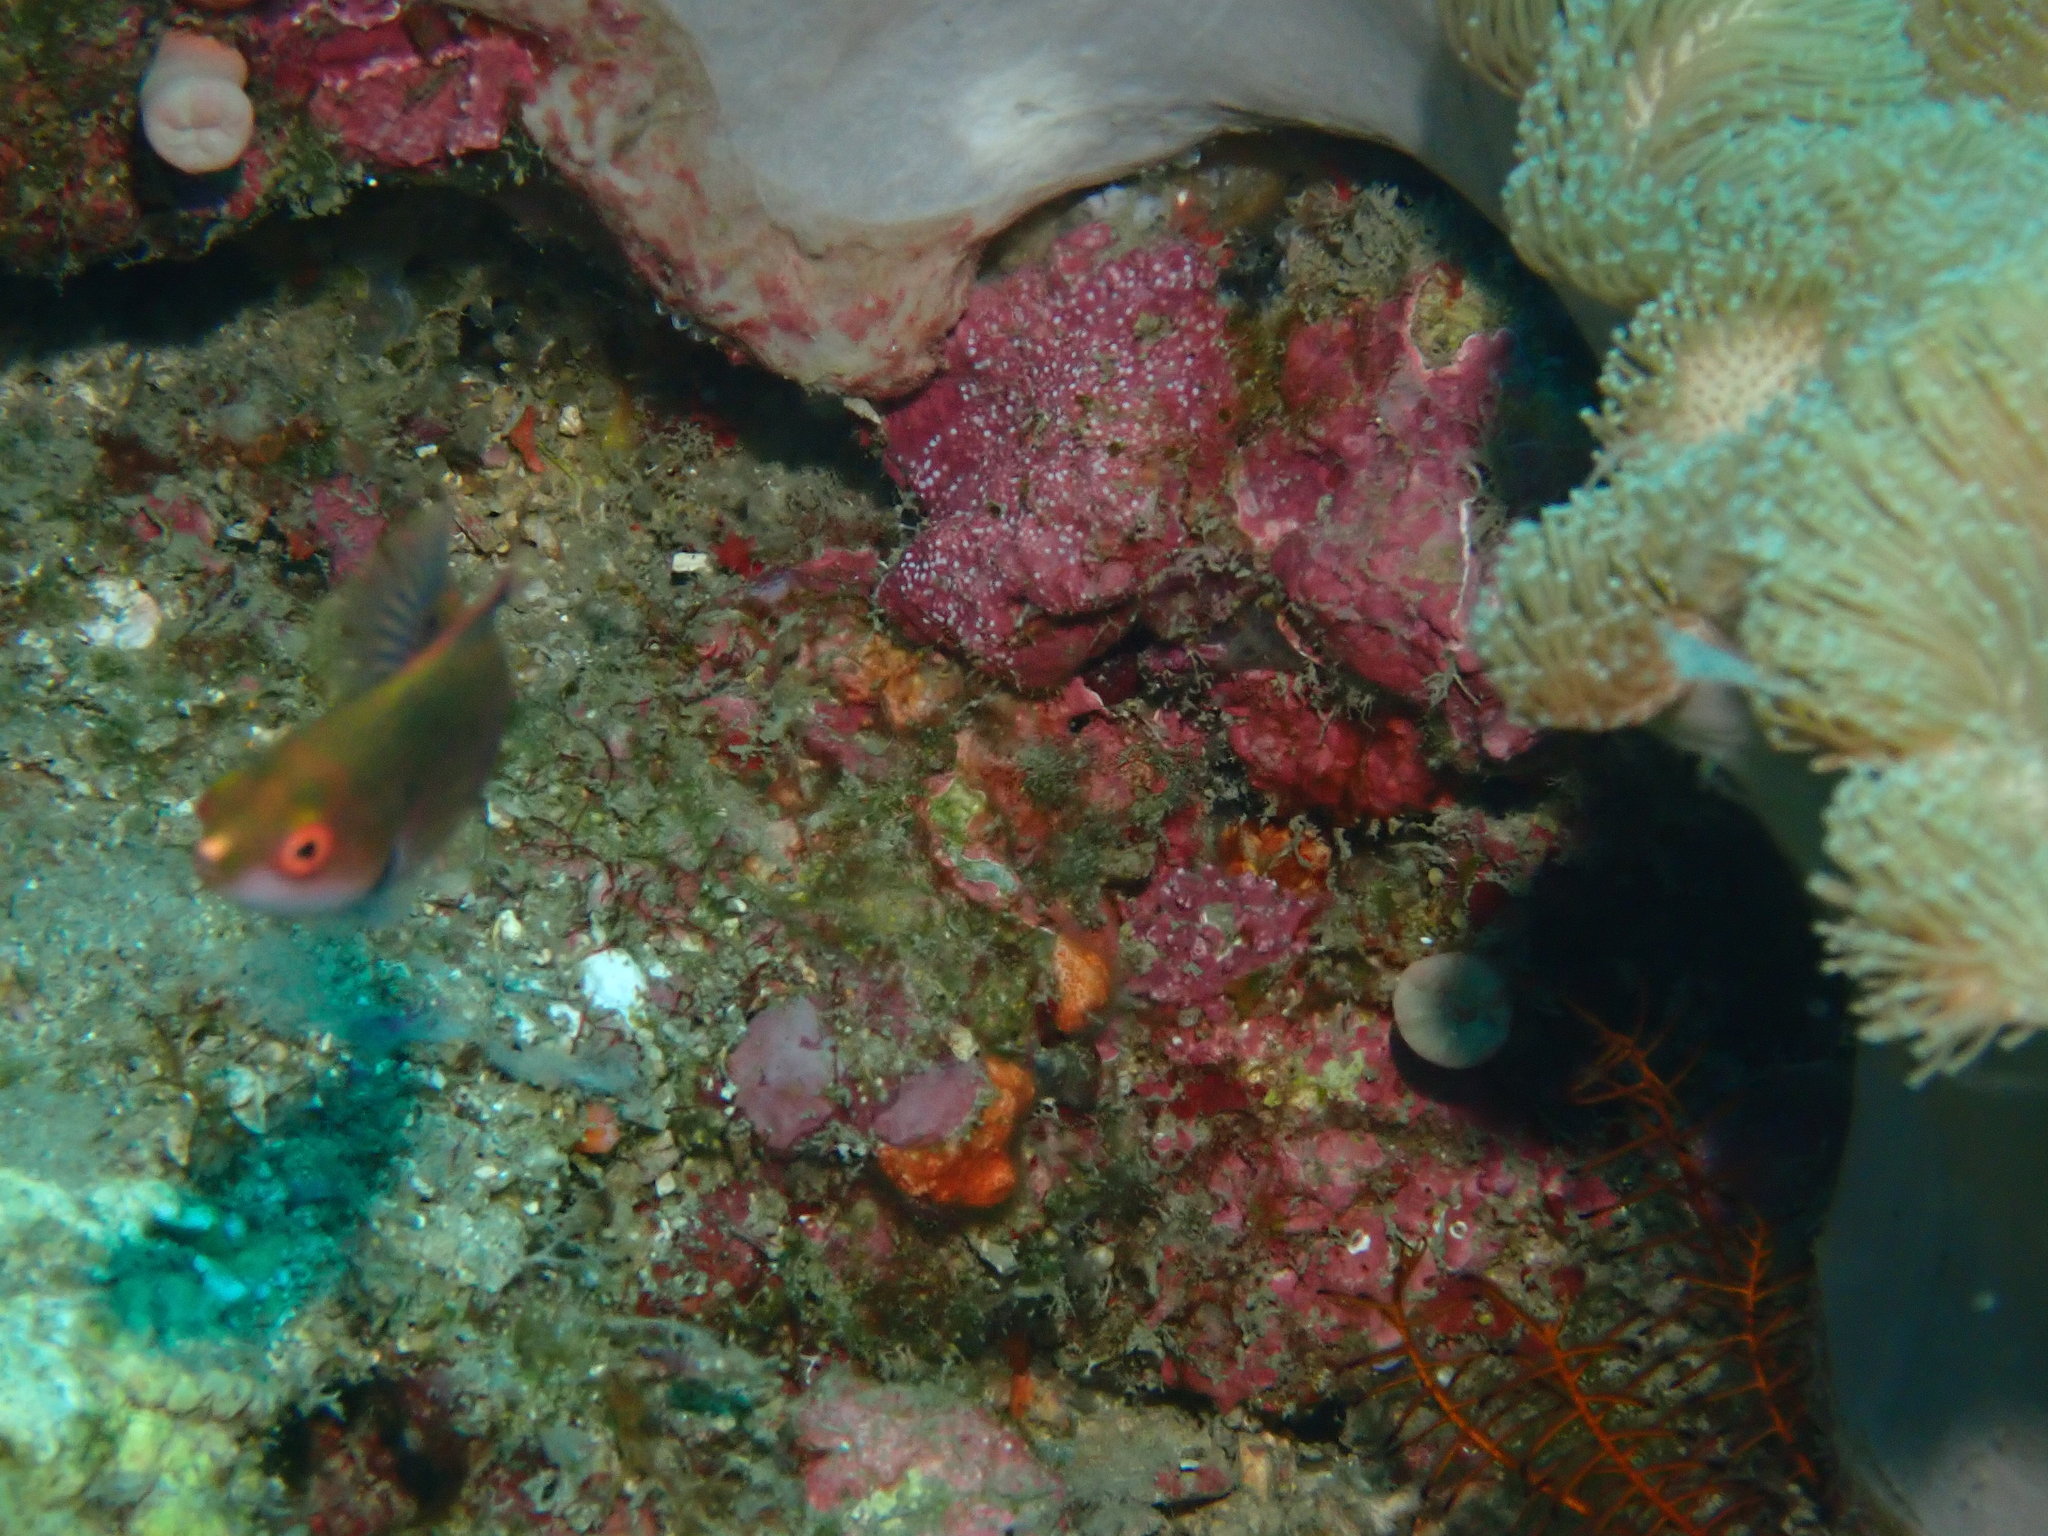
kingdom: Animalia
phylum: Chordata
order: Perciformes
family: Labridae
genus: Cirrhilabrus
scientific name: Cirrhilabrus cyanopleura
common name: Coralline wrasse
